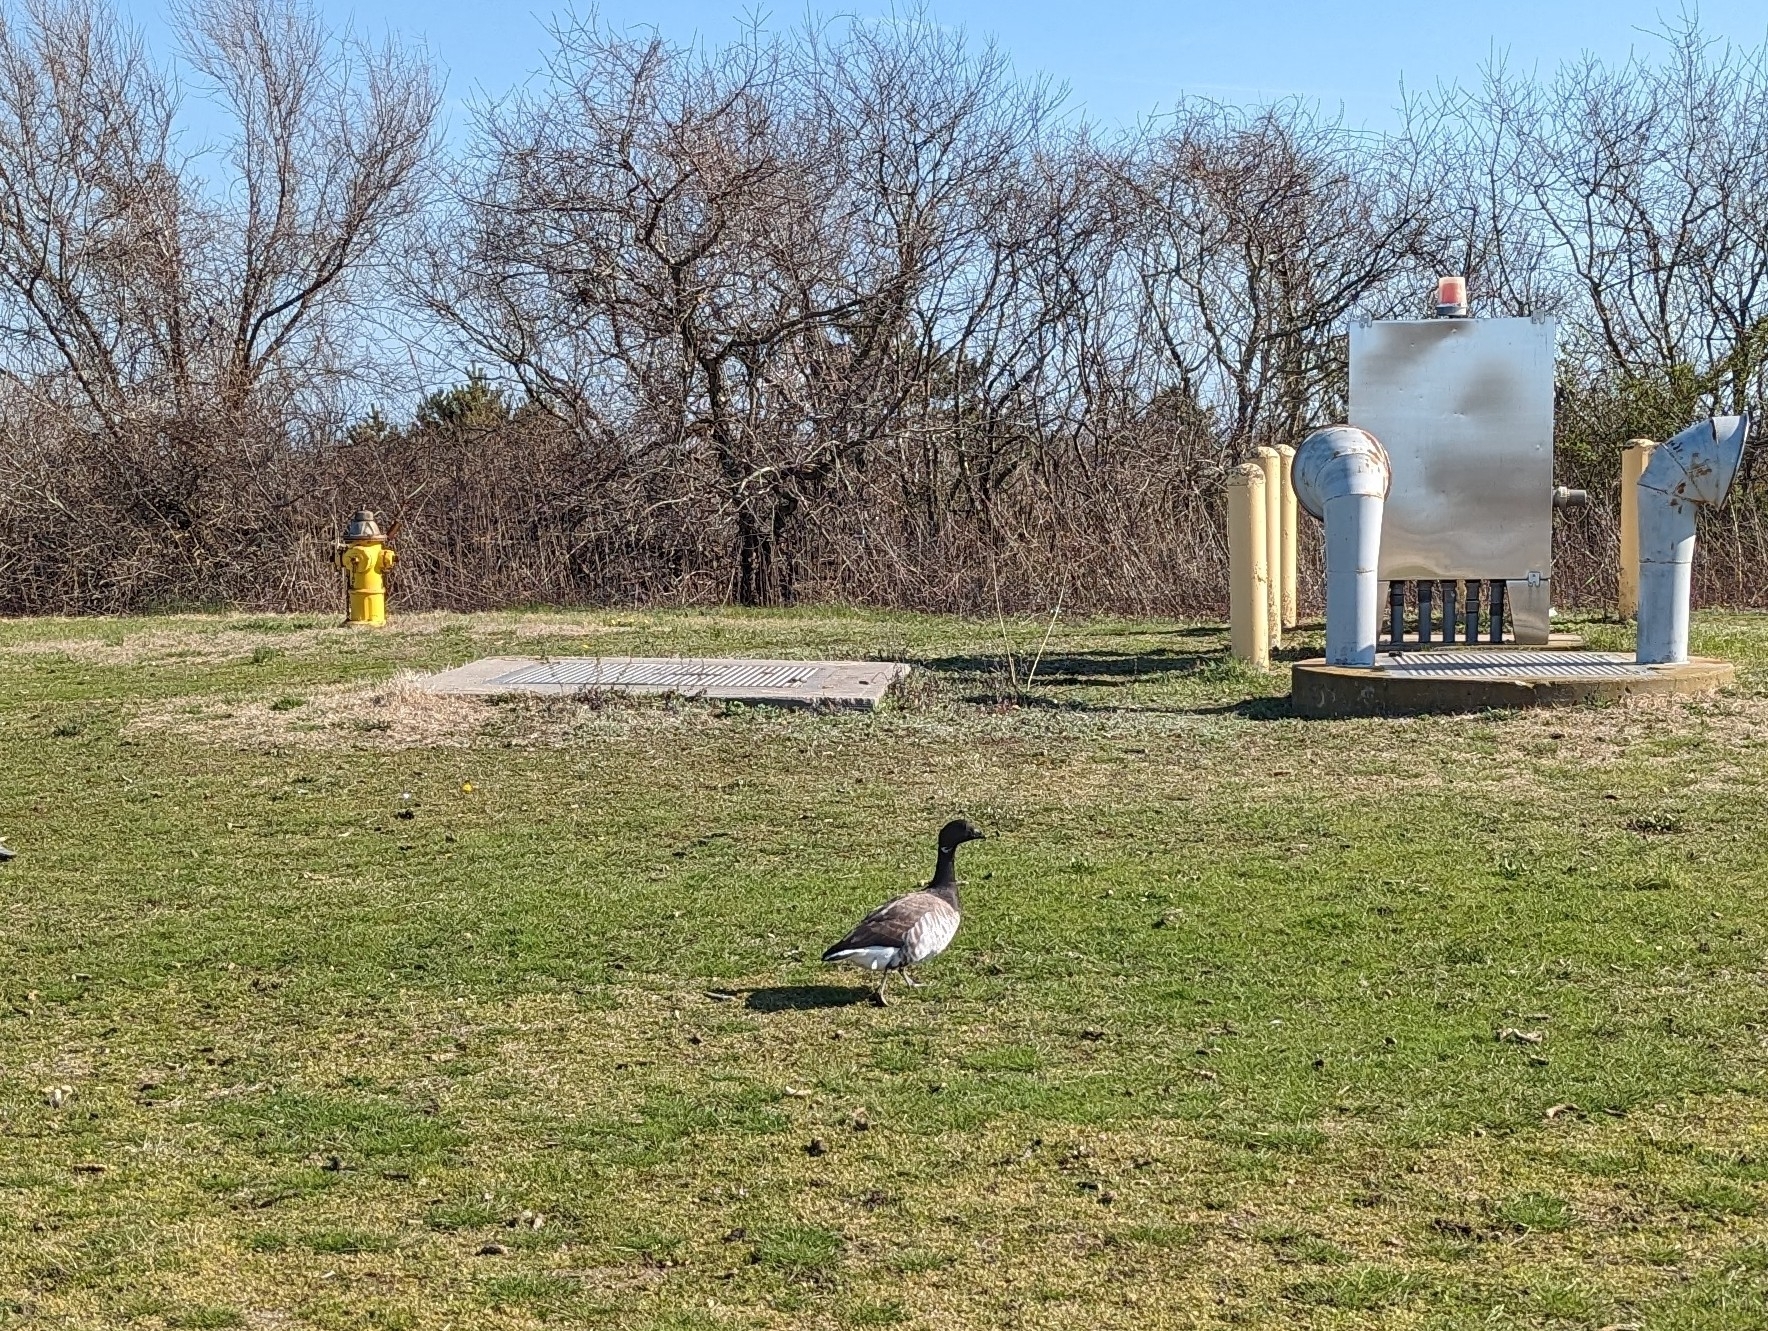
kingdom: Animalia
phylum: Chordata
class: Aves
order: Anseriformes
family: Anatidae
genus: Branta
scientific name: Branta bernicla
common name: Brant goose
